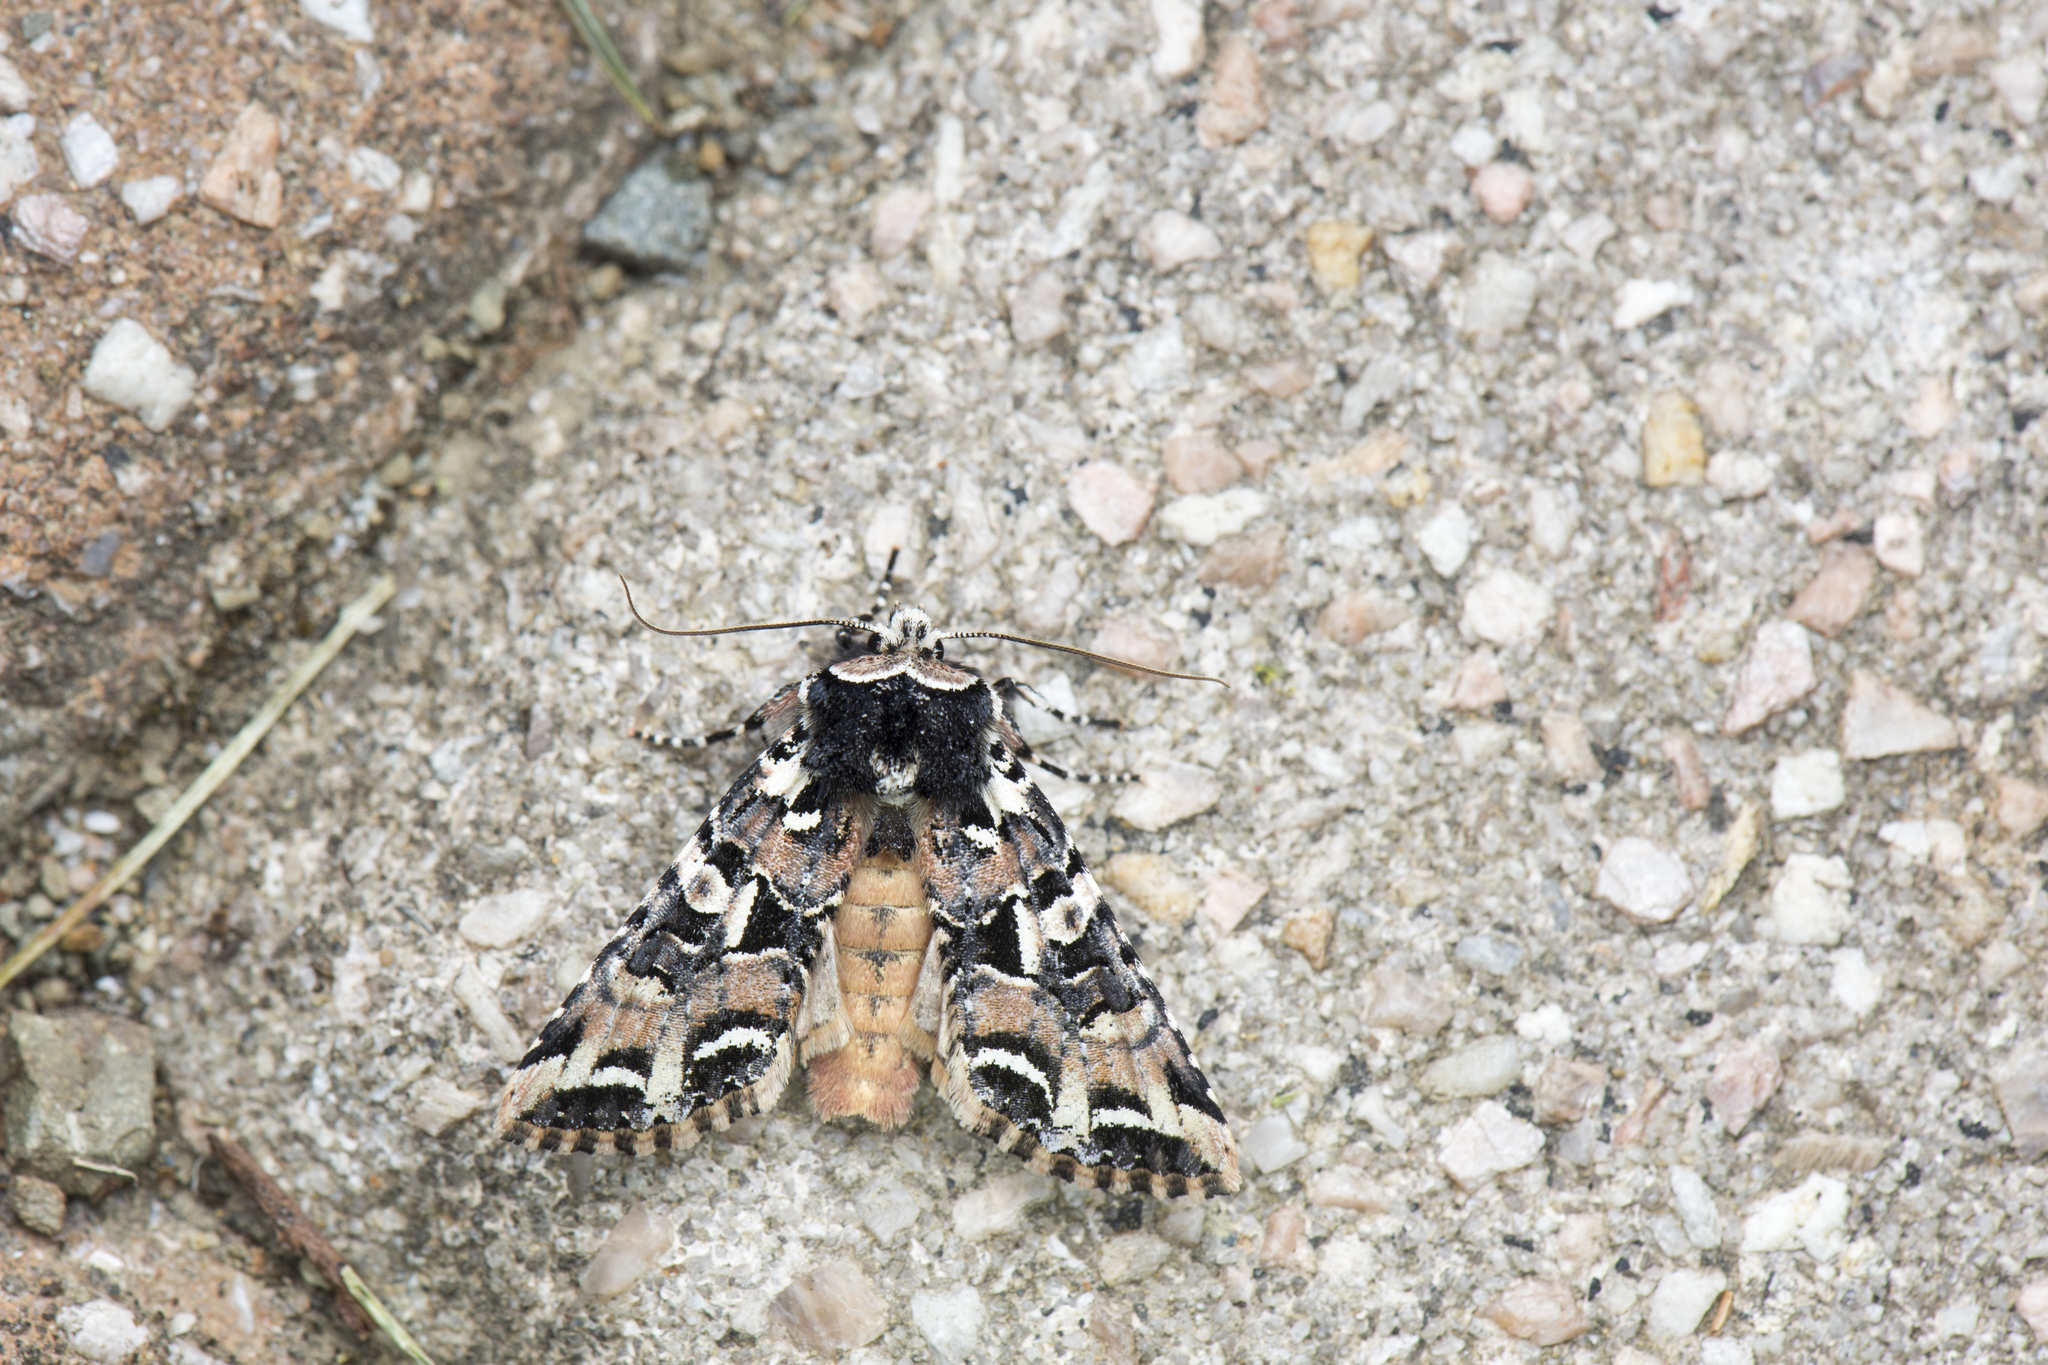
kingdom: Animalia
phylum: Arthropoda
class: Insecta
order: Lepidoptera
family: Noctuidae
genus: Orthopolia
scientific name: Orthopolia tayal
